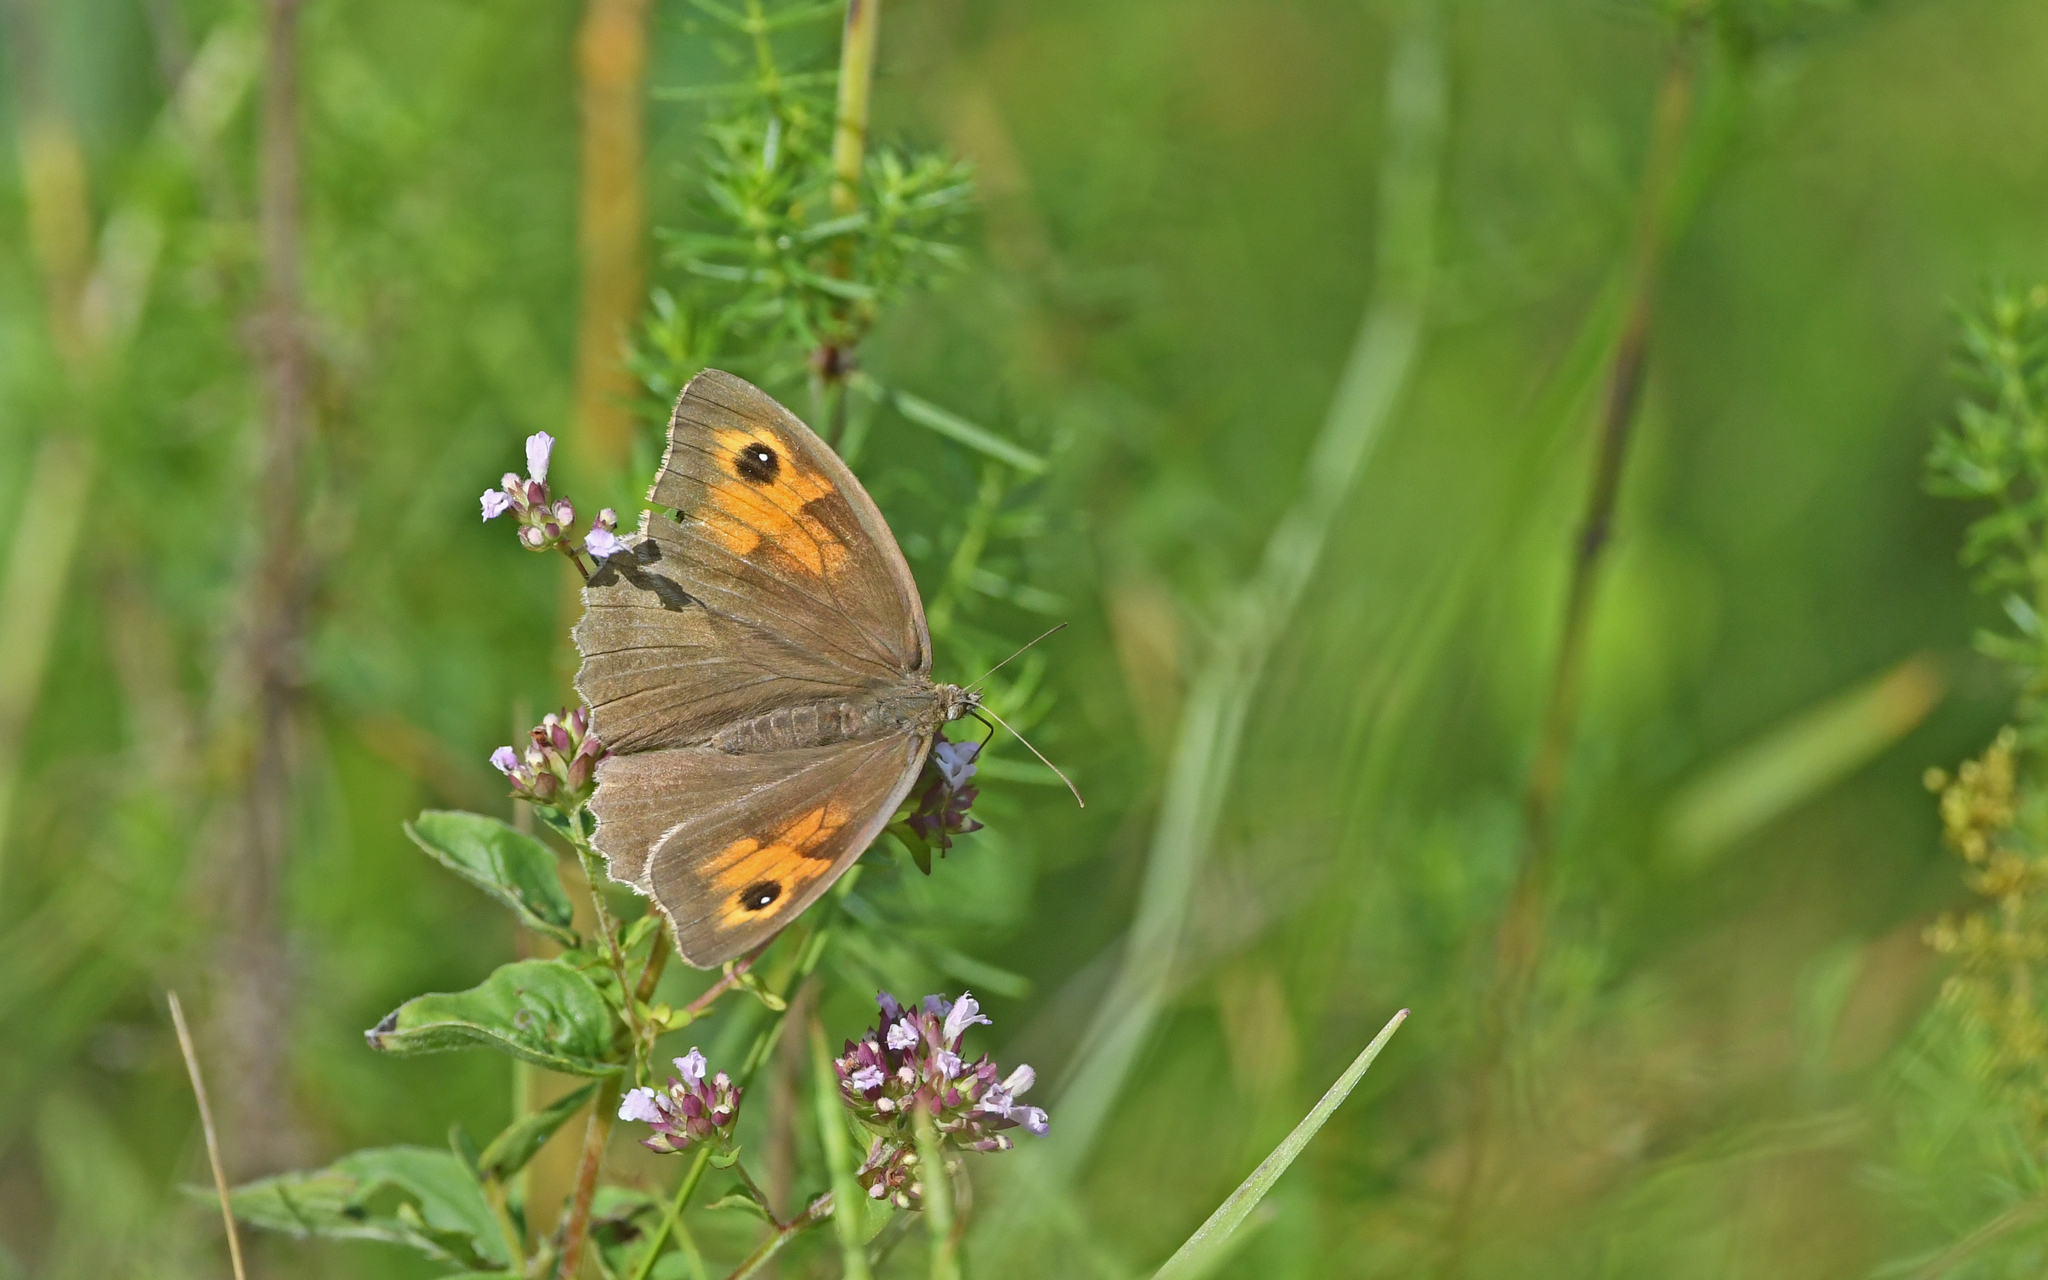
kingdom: Animalia
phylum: Arthropoda
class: Insecta
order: Lepidoptera
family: Nymphalidae
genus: Maniola
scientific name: Maniola jurtina
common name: Meadow brown
